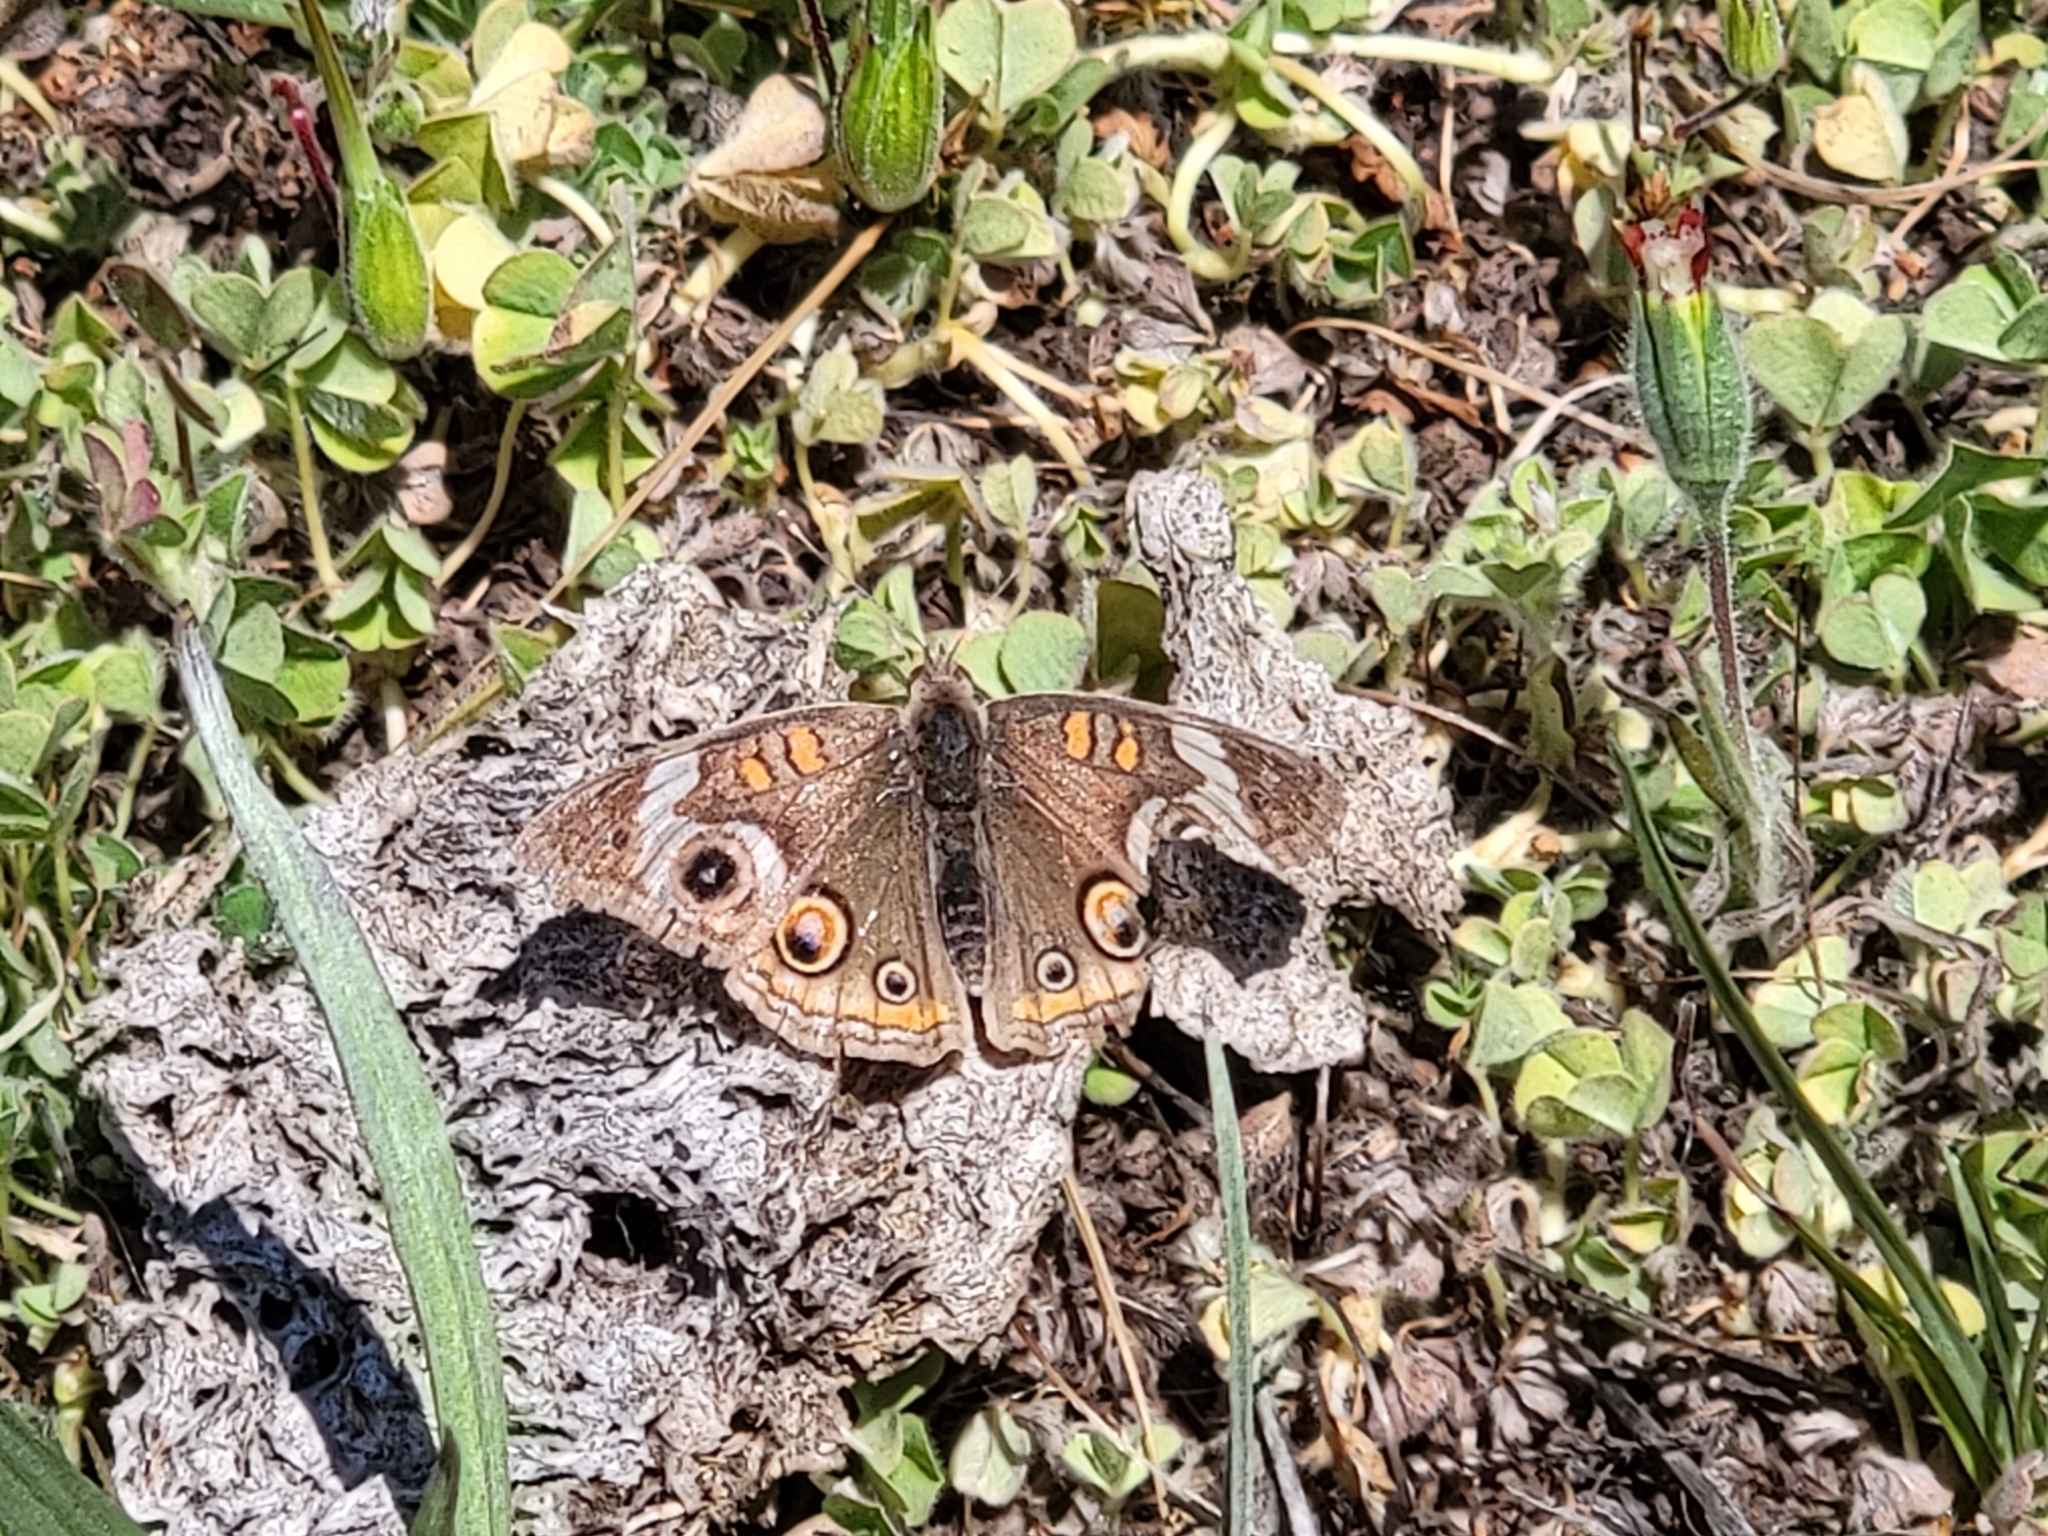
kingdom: Animalia
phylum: Arthropoda
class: Insecta
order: Lepidoptera
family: Nymphalidae
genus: Junonia
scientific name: Junonia grisea
